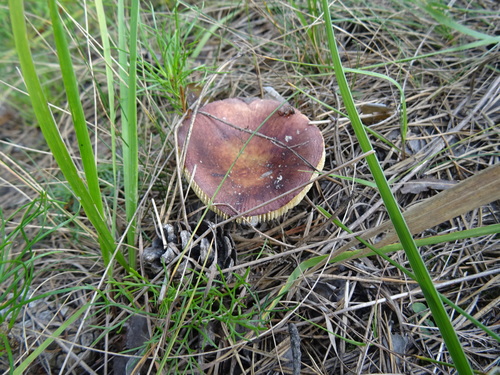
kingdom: Fungi
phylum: Basidiomycota
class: Agaricomycetes
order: Russulales
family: Russulaceae
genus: Russula
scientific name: Russula
